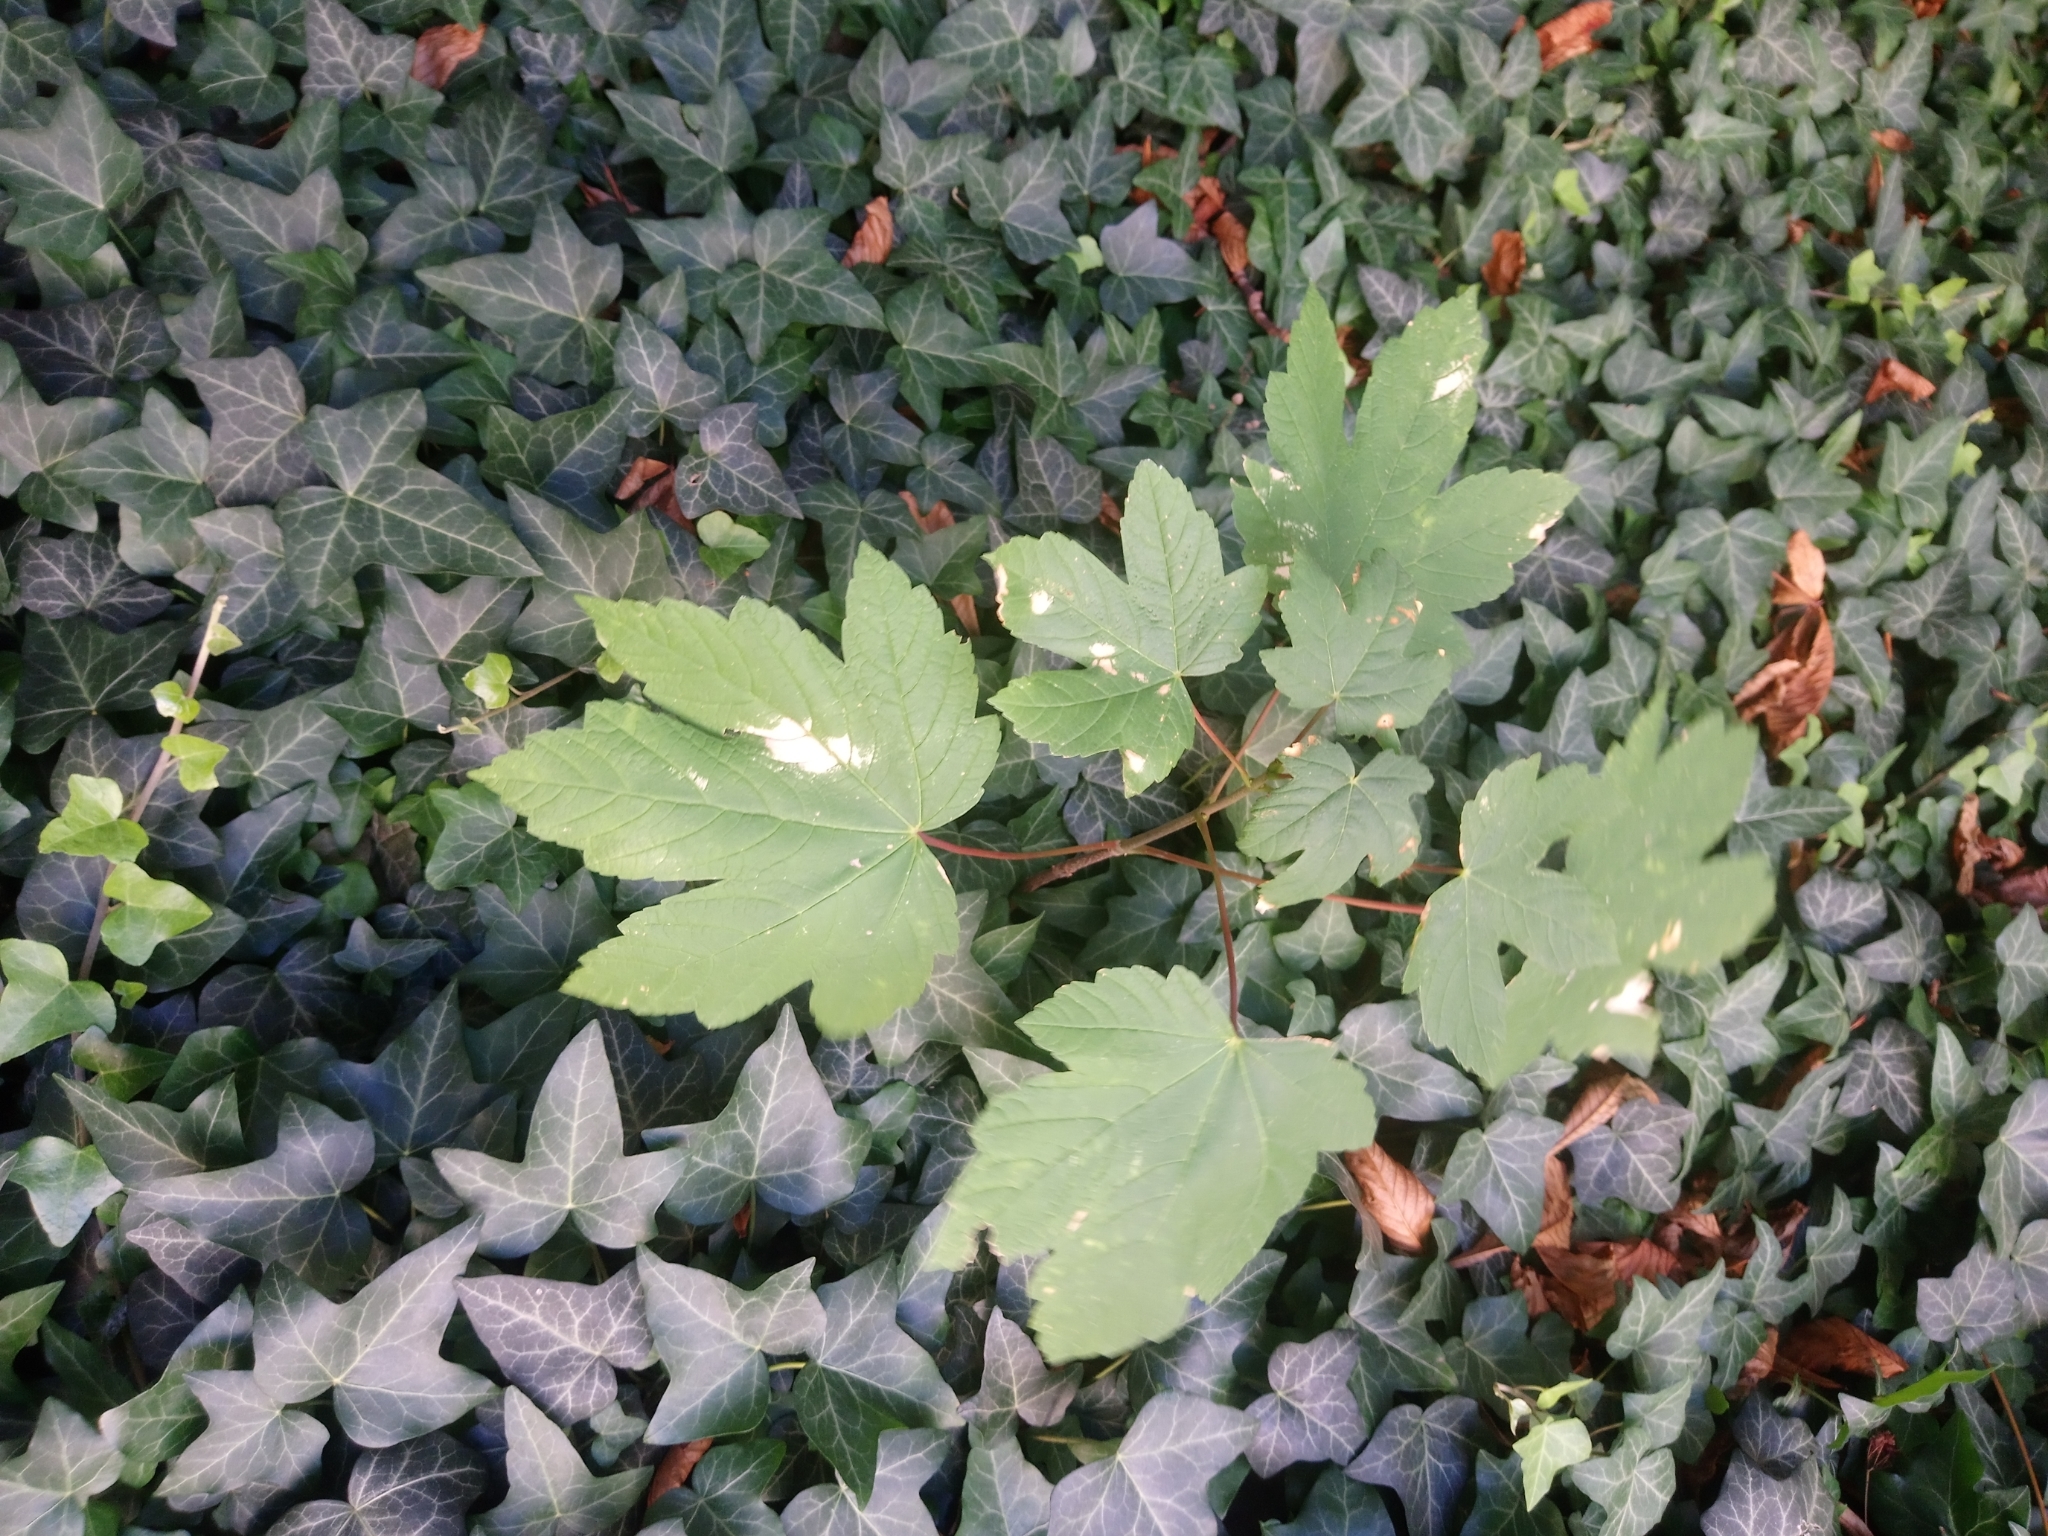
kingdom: Plantae
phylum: Tracheophyta
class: Magnoliopsida
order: Sapindales
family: Sapindaceae
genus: Acer
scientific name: Acer pseudoplatanus
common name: Sycamore
